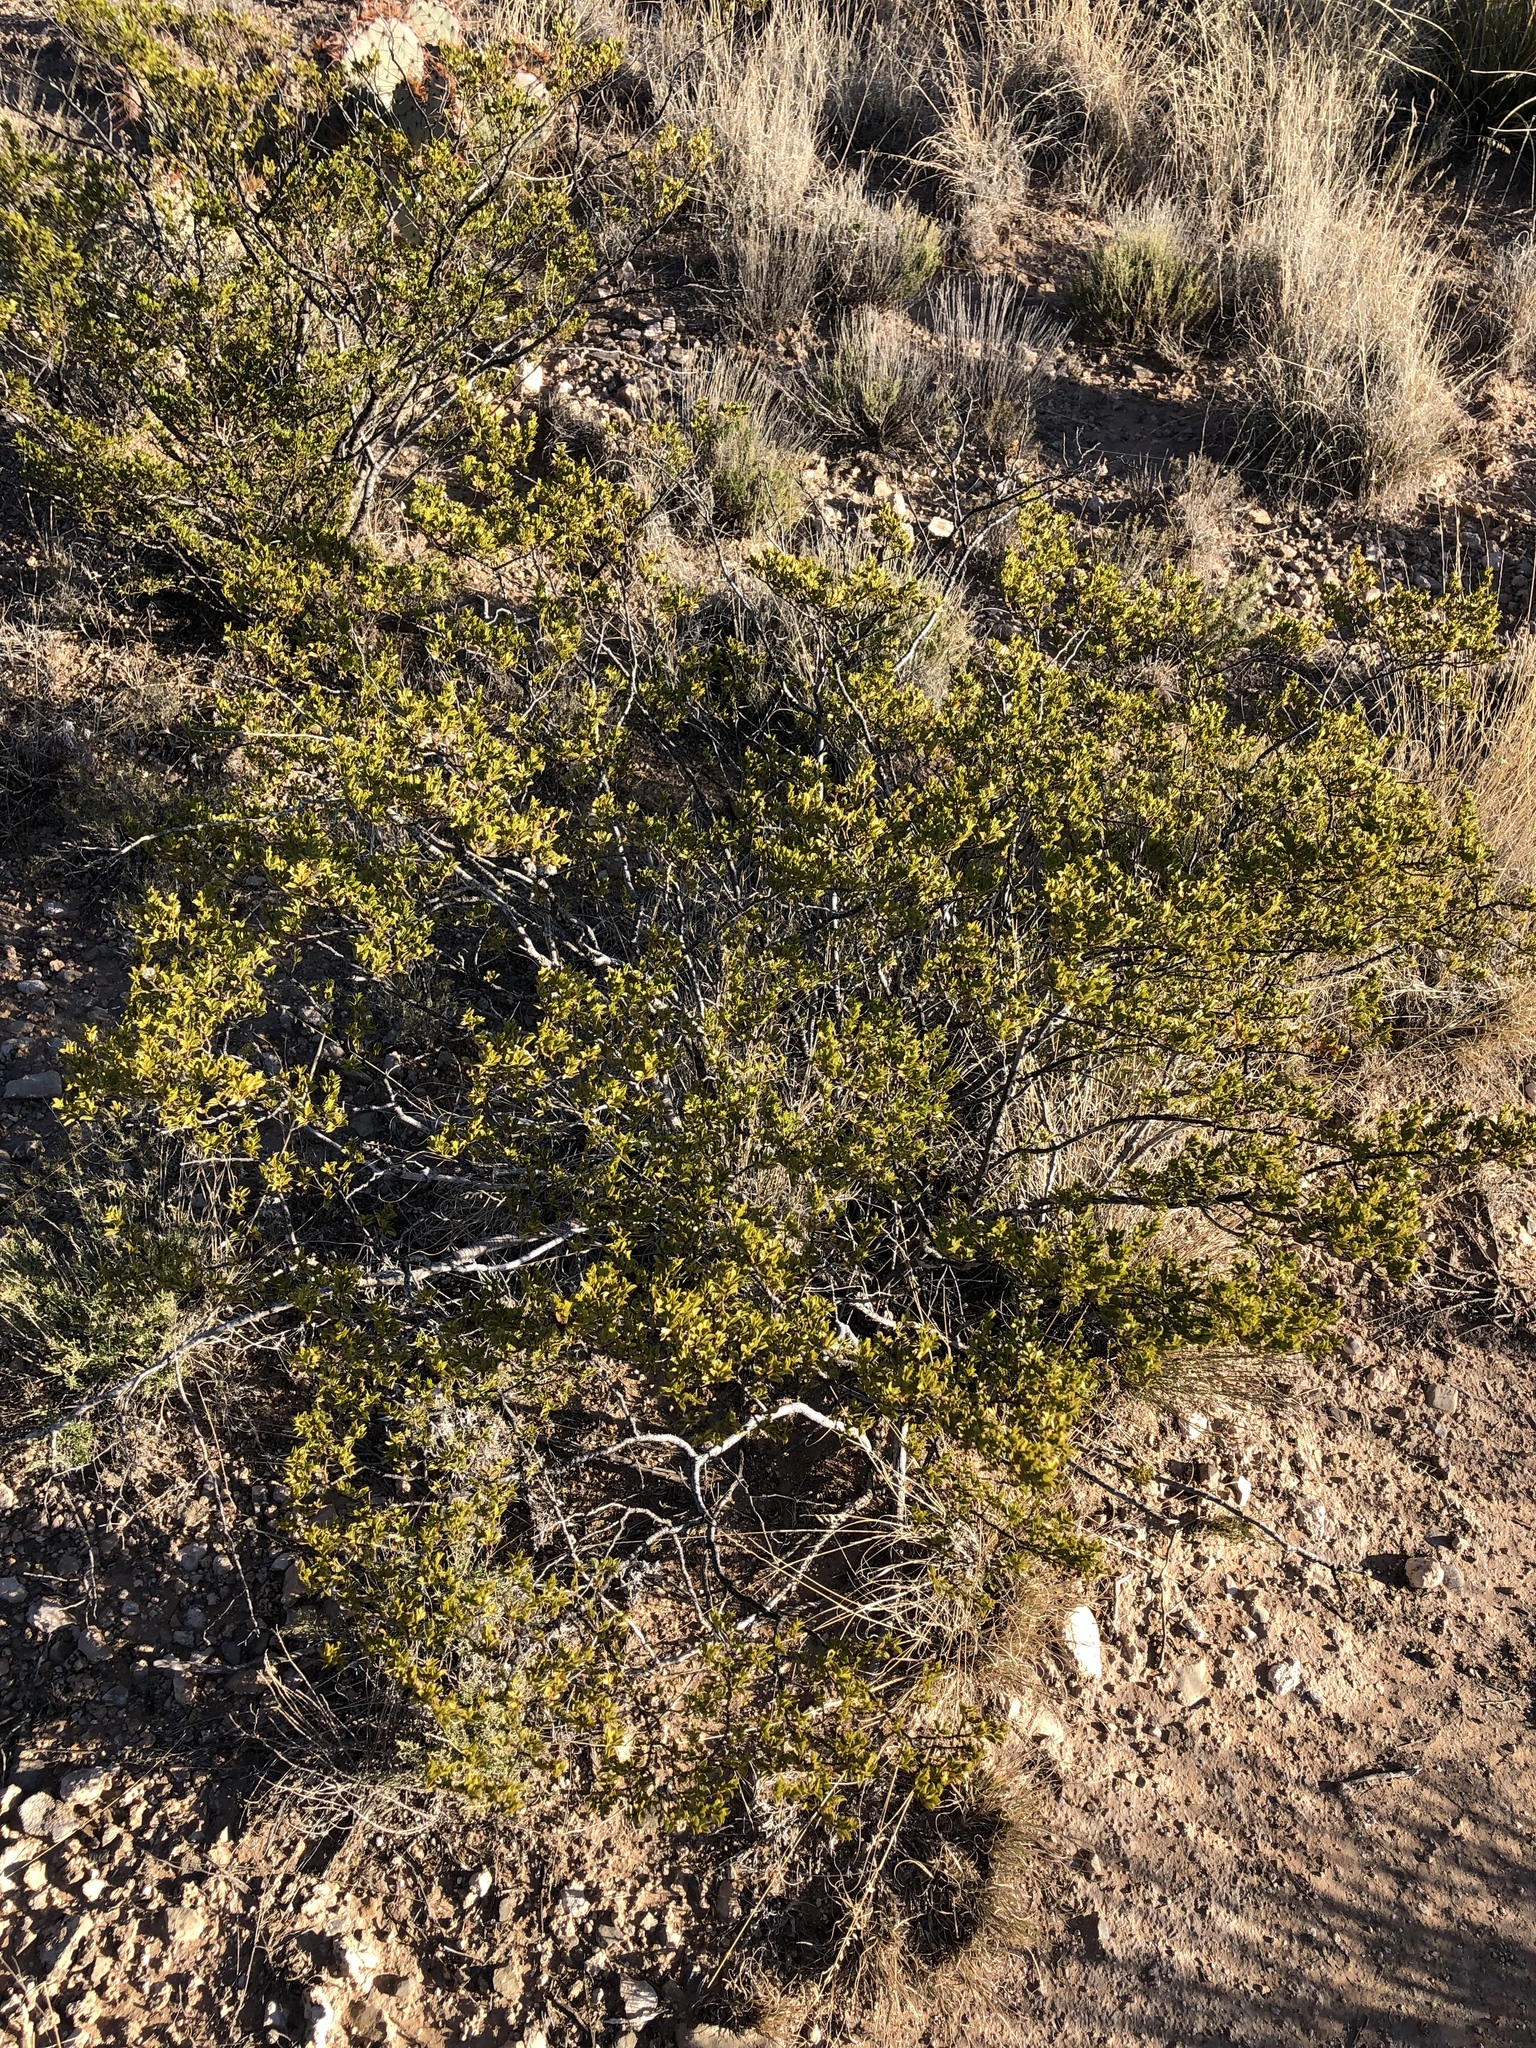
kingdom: Plantae
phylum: Tracheophyta
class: Magnoliopsida
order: Zygophyllales
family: Zygophyllaceae
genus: Larrea
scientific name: Larrea tridentata
